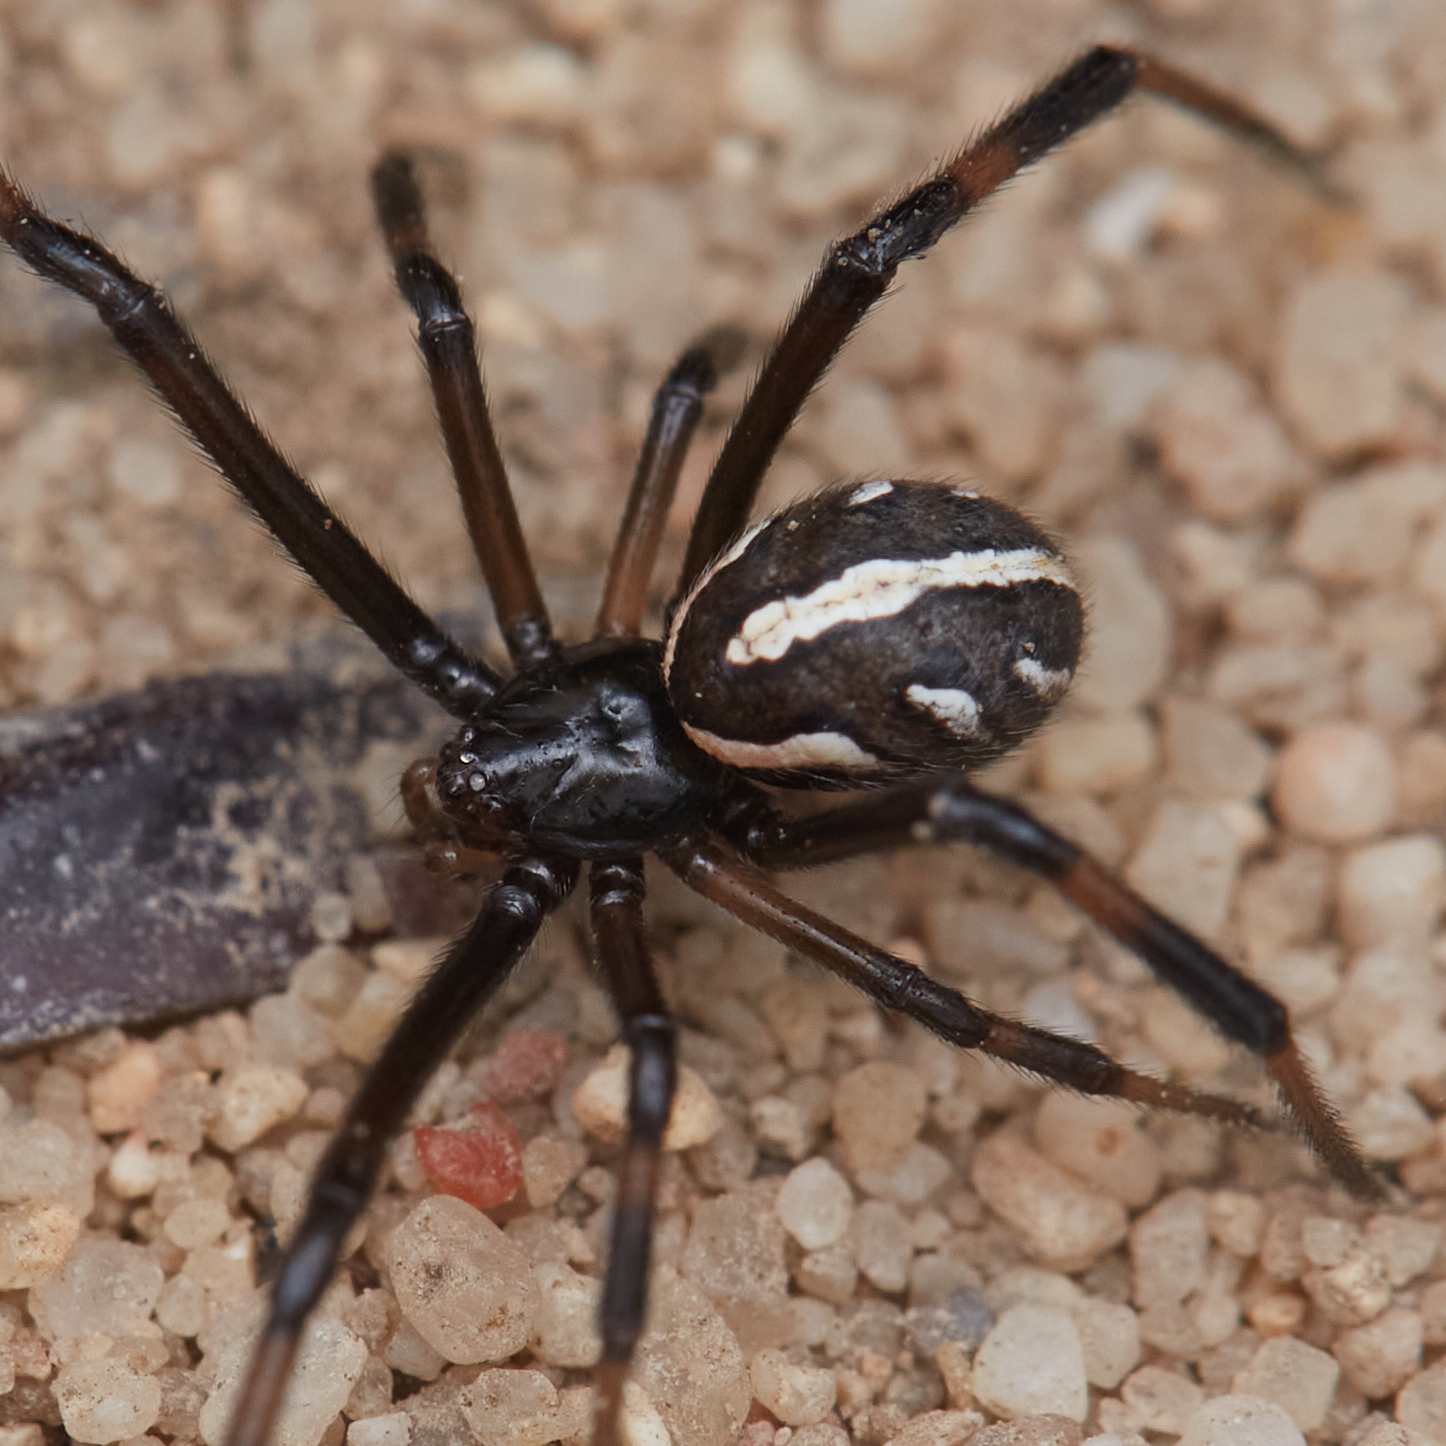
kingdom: Animalia
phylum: Arthropoda
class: Arachnida
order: Araneae
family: Theridiidae
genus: Latrodectus
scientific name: Latrodectus hesperus
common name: Western black widow
